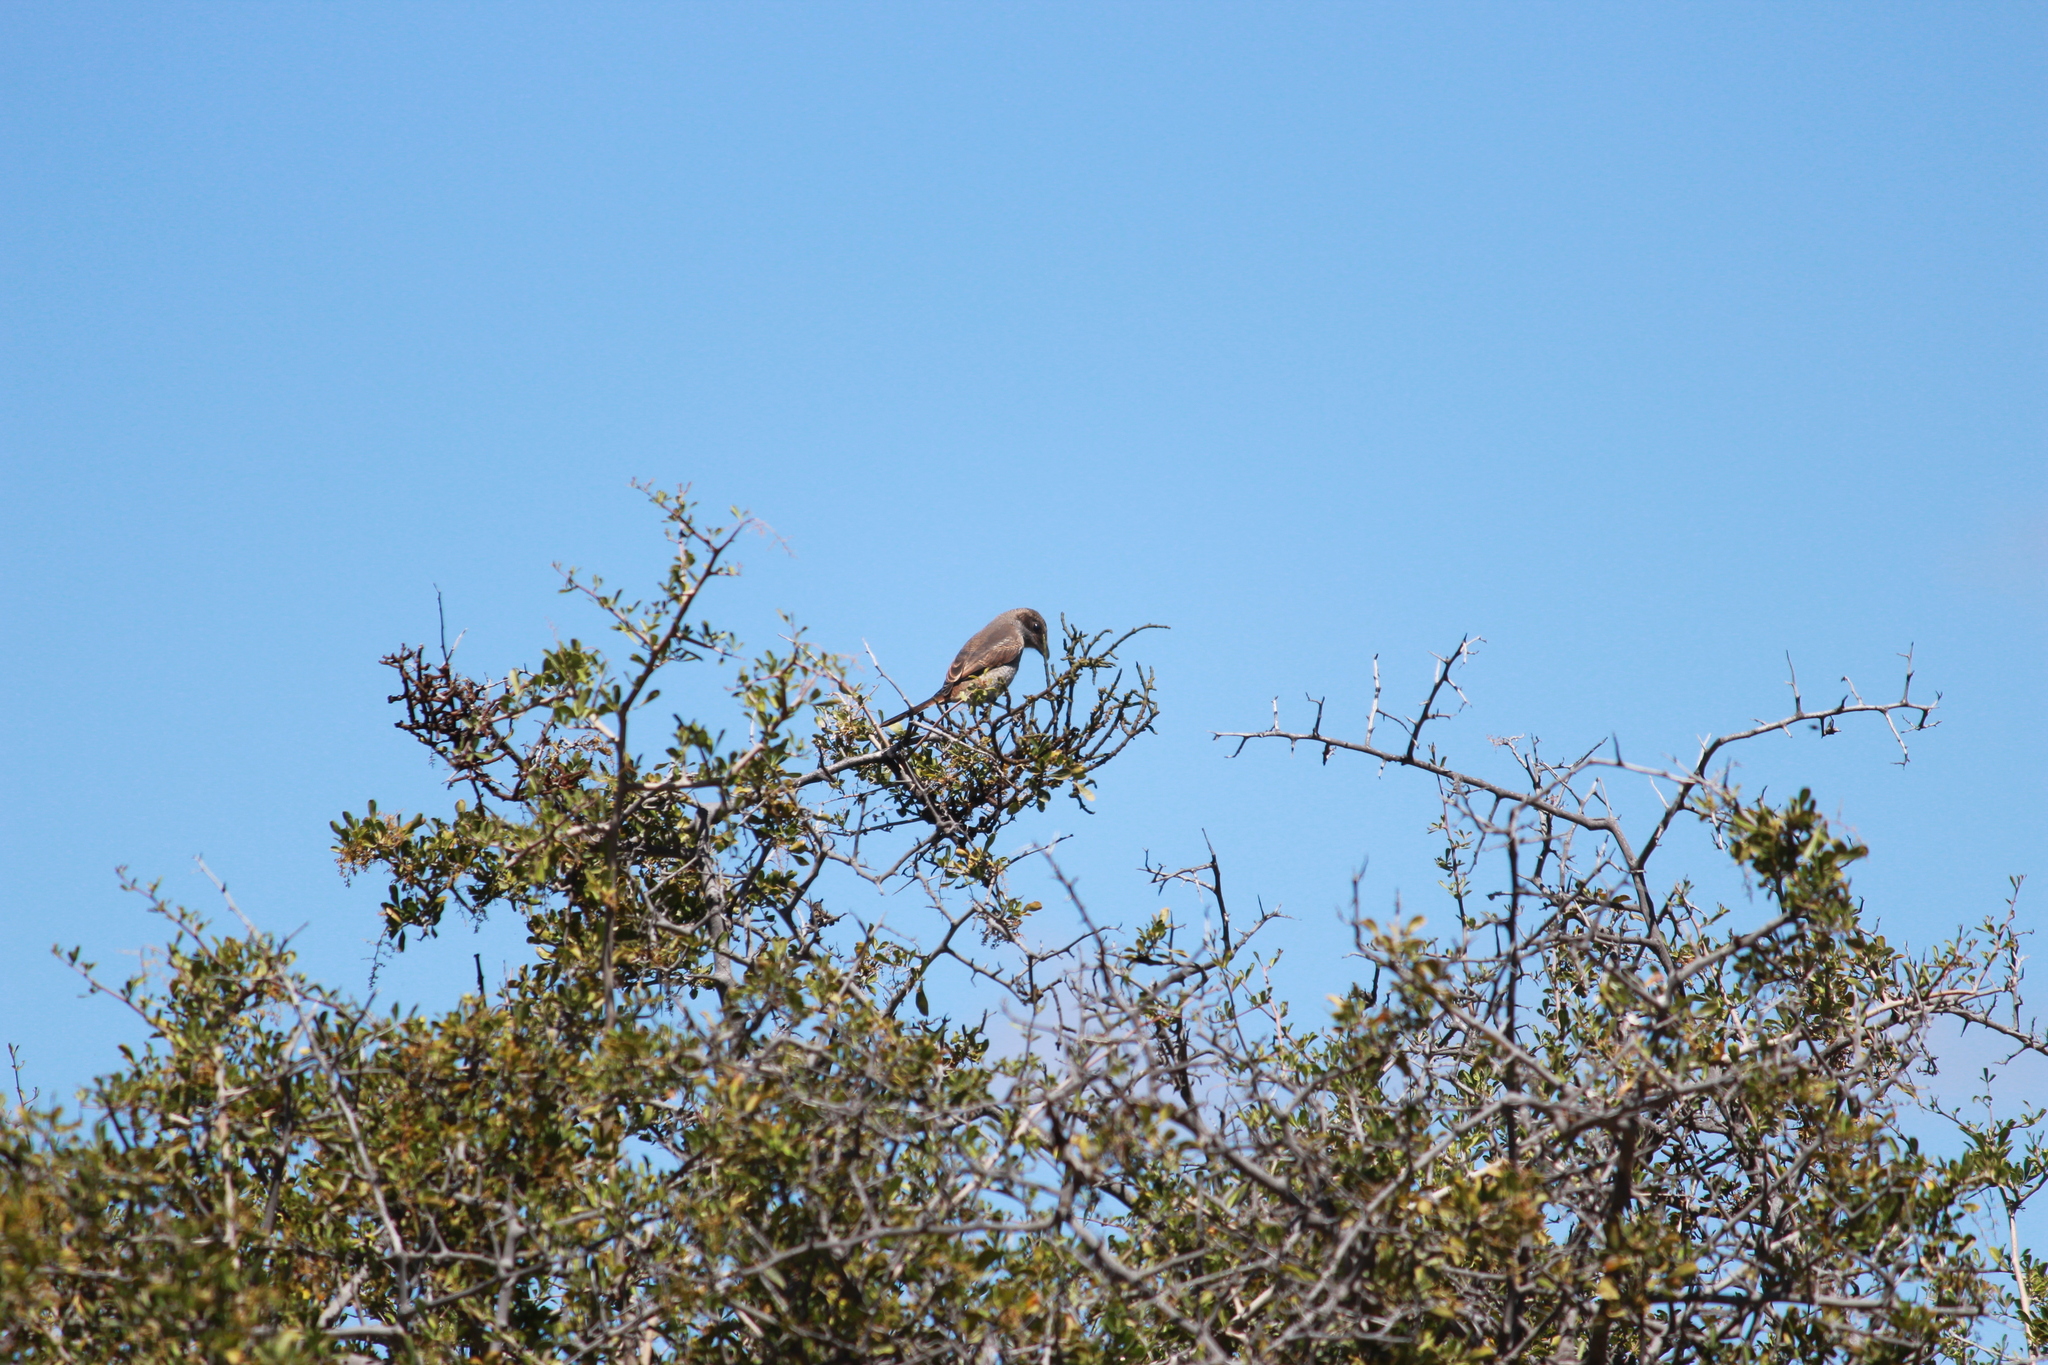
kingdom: Animalia
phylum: Chordata
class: Aves
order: Passeriformes
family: Laniidae
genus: Lanius
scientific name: Lanius collurio
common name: Red-backed shrike
